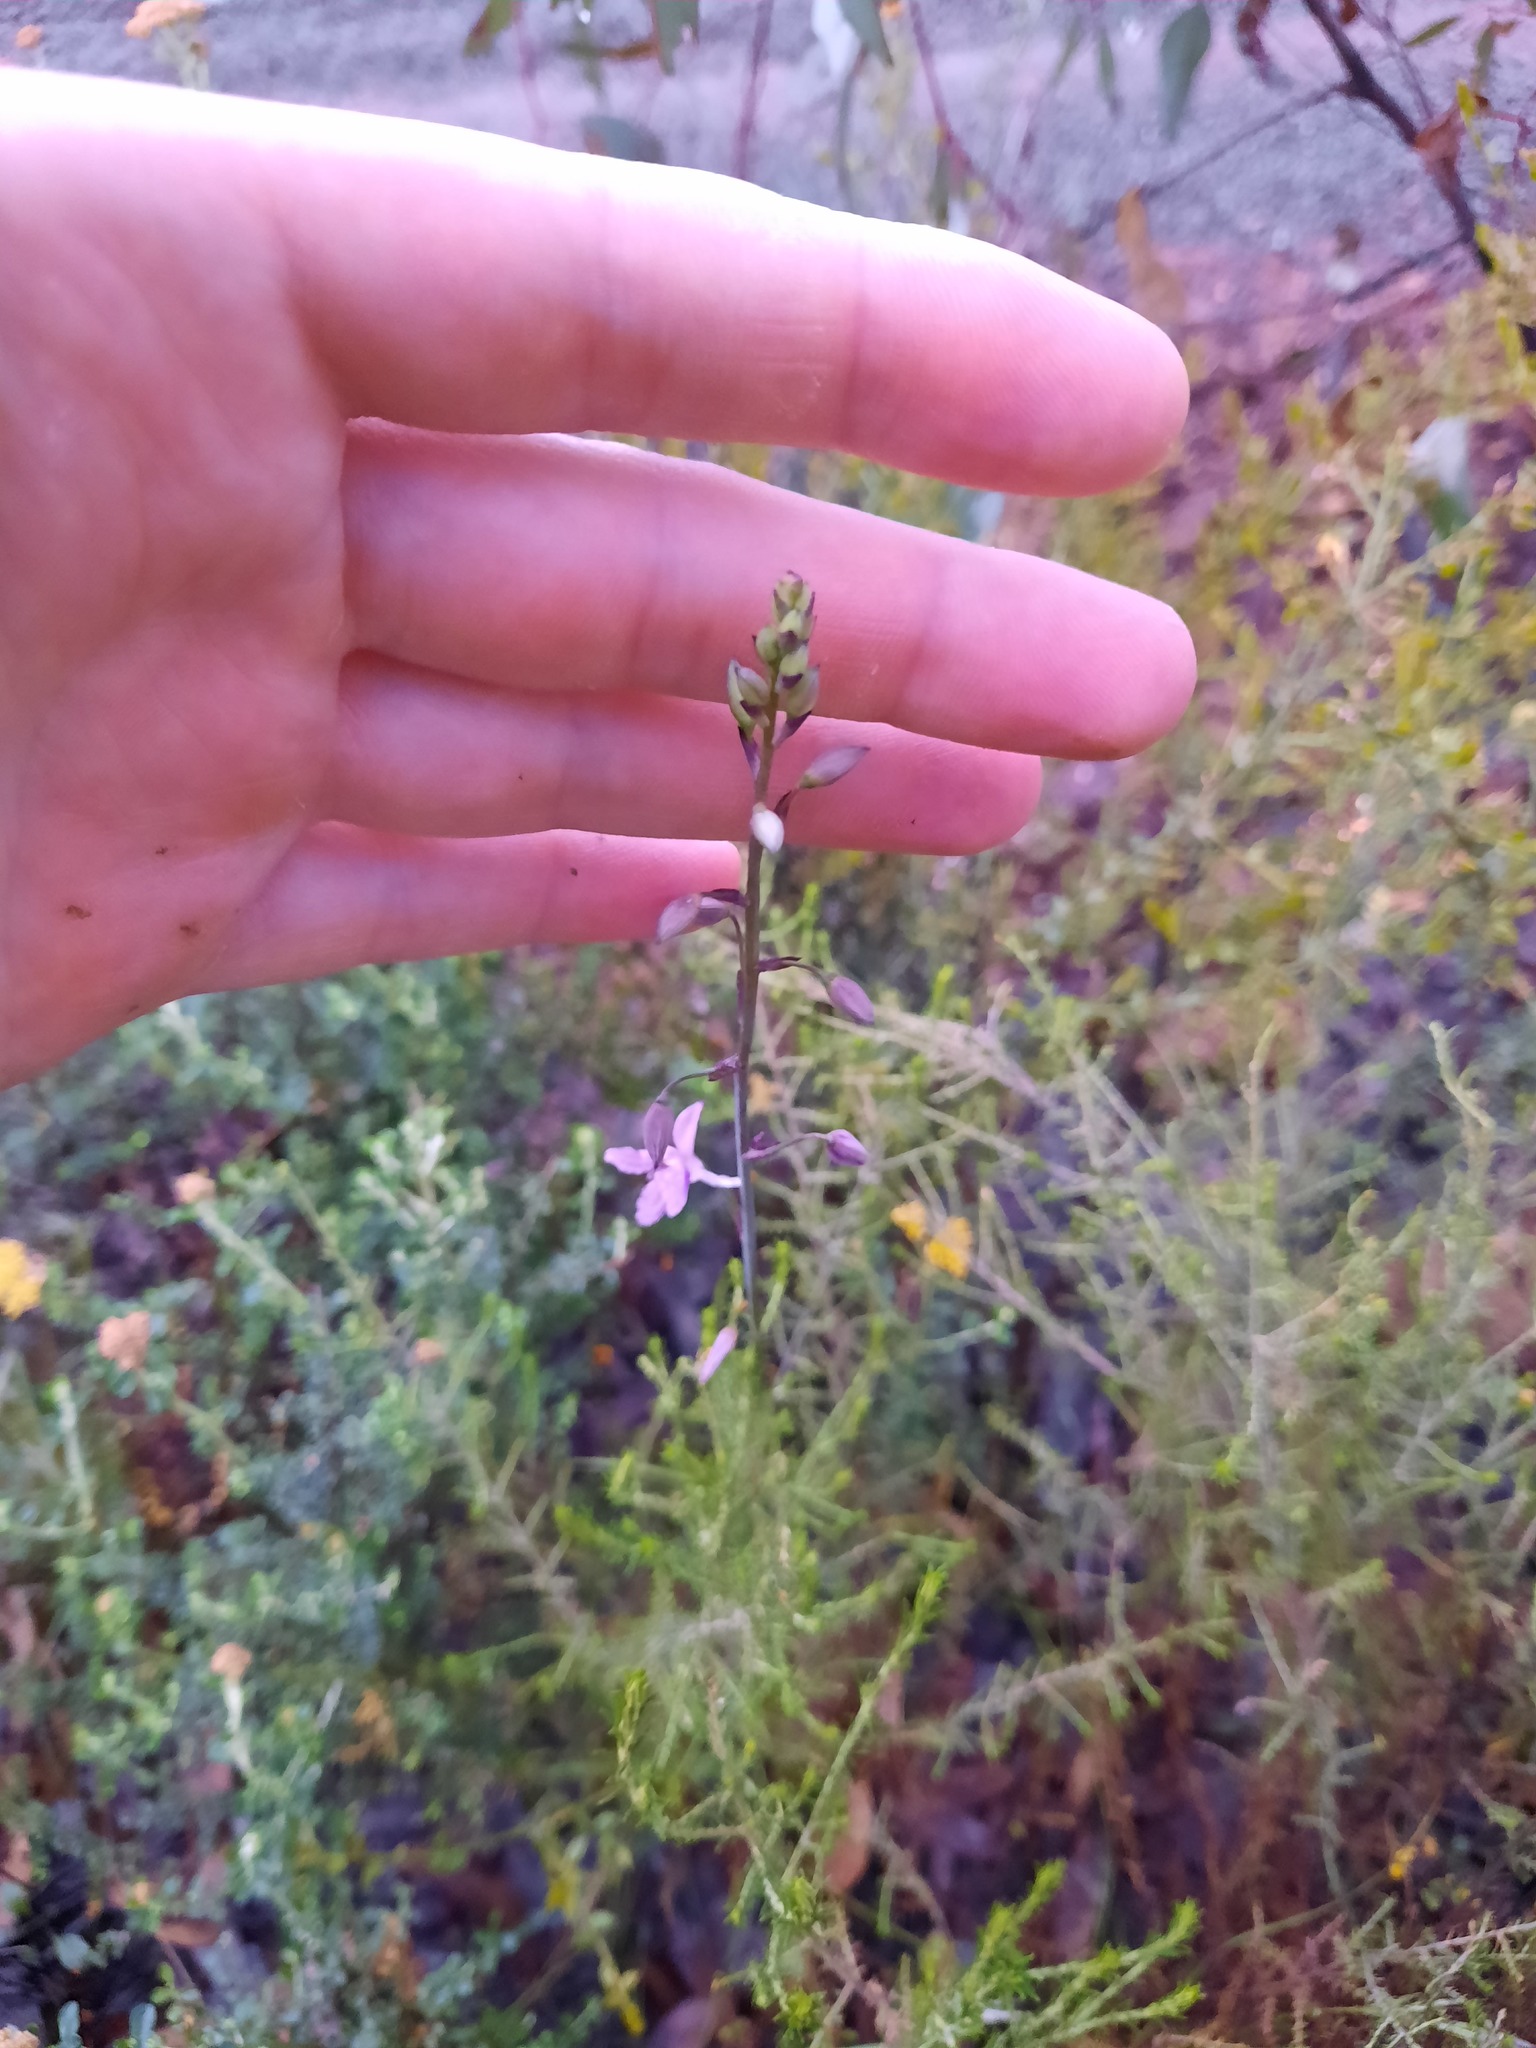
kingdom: Plantae
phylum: Tracheophyta
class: Liliopsida
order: Asparagales
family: Asparagaceae
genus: Arthropodium
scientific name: Arthropodium strictum
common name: Chocolate-lily
